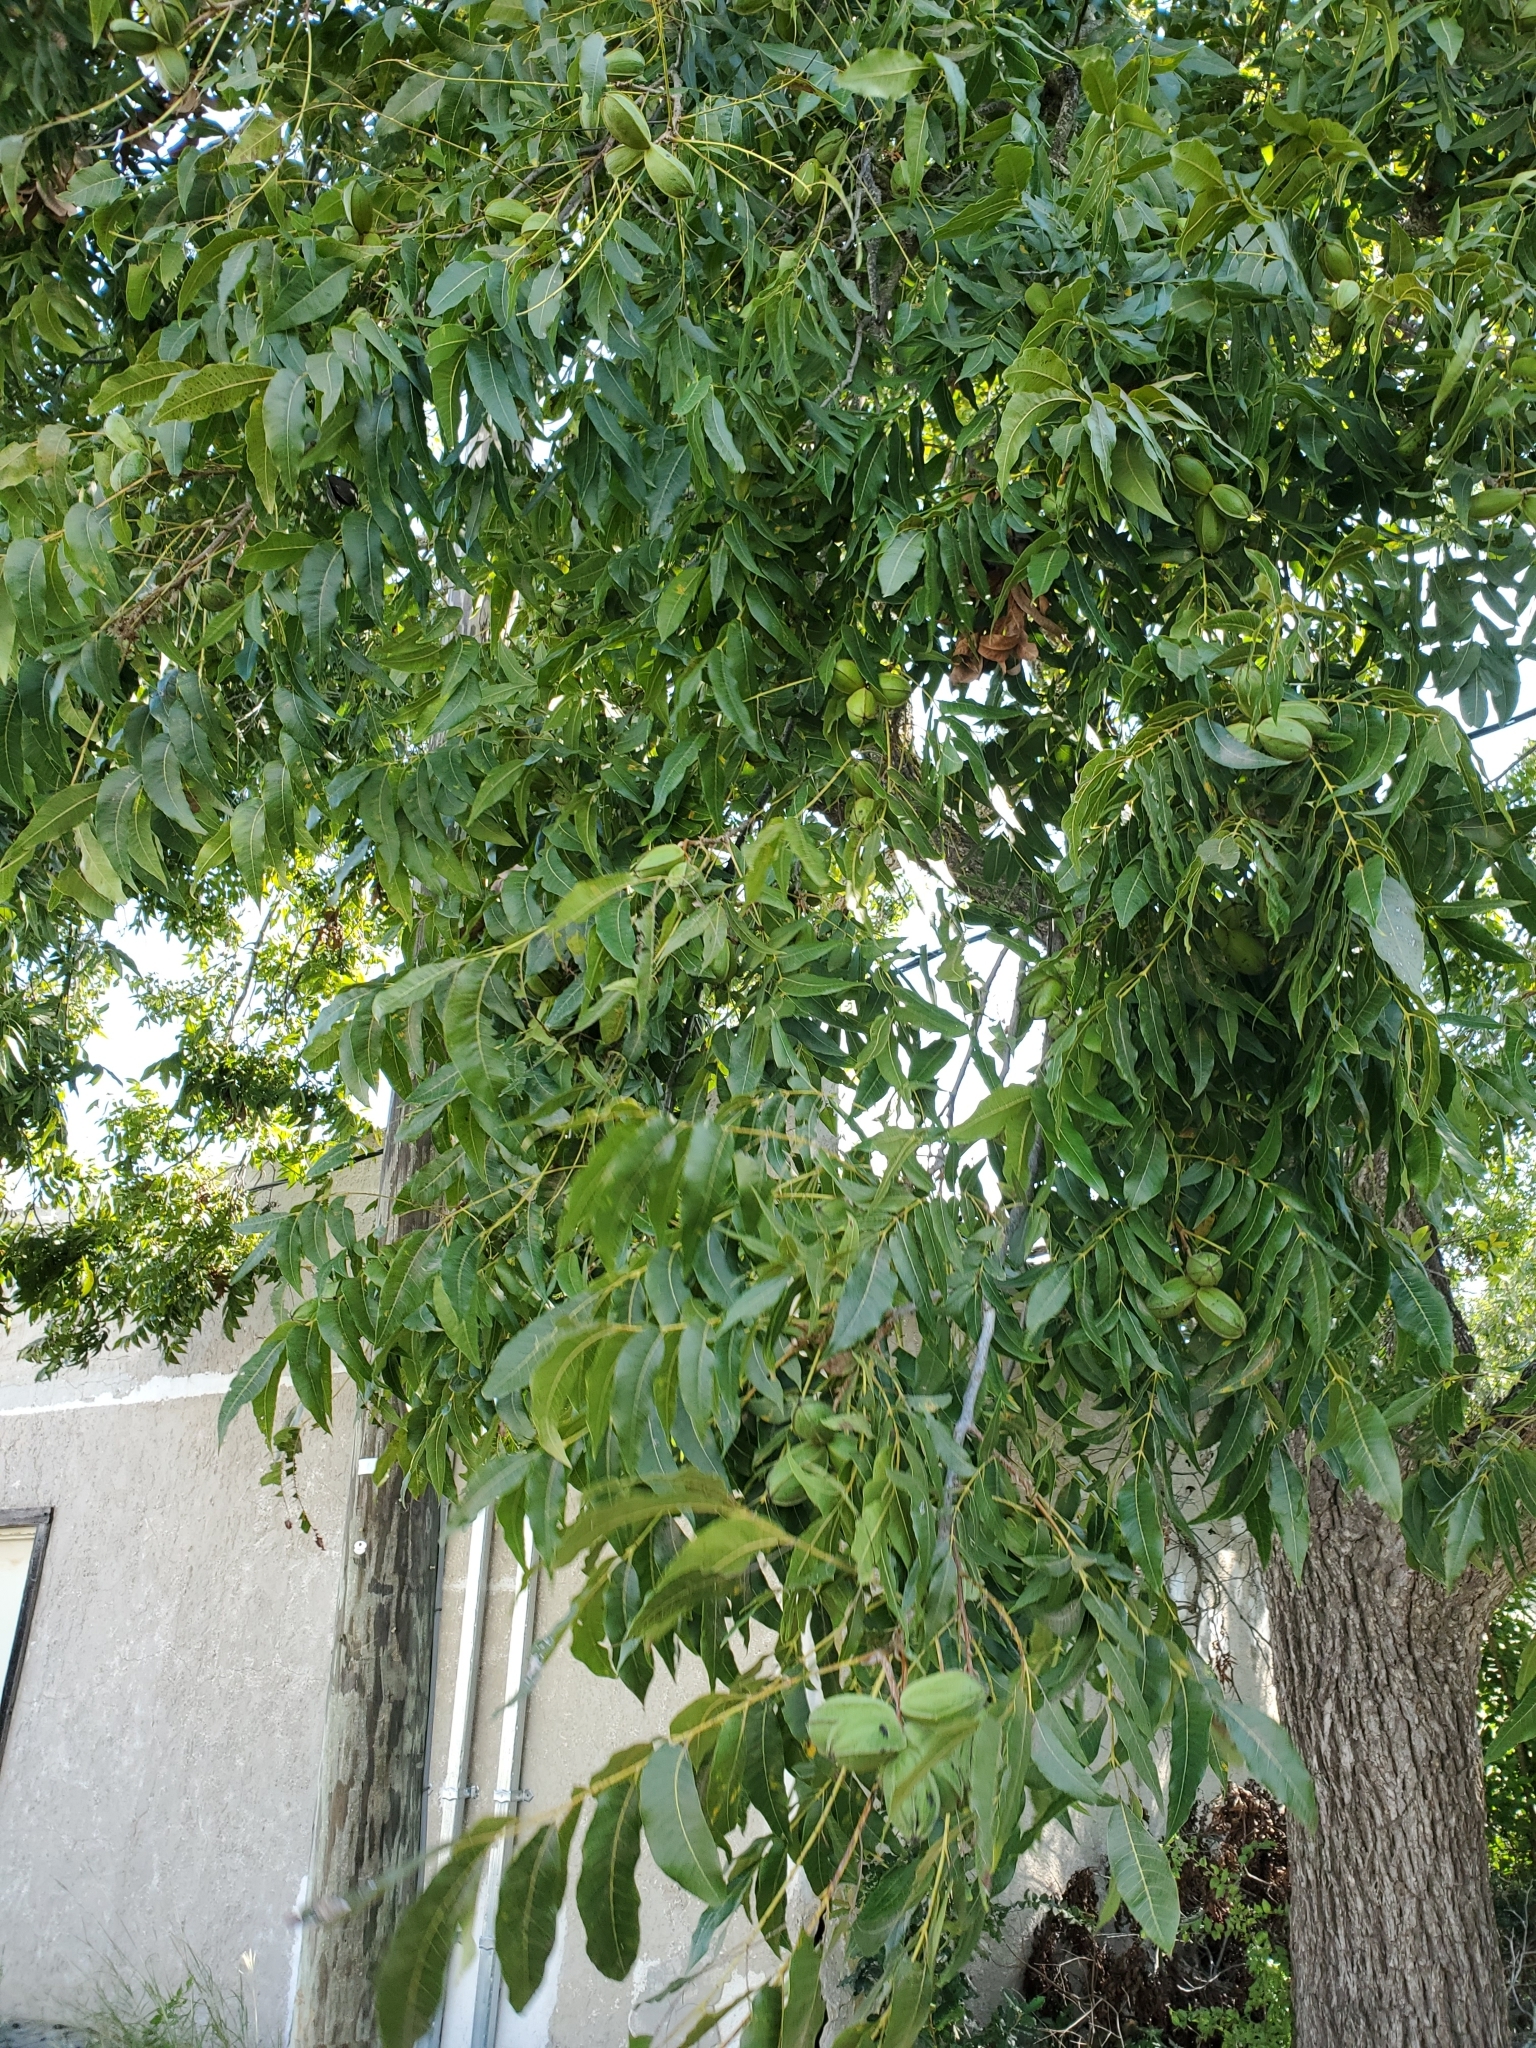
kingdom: Plantae
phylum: Tracheophyta
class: Magnoliopsida
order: Fagales
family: Juglandaceae
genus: Carya
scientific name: Carya illinoinensis
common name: Pecan
